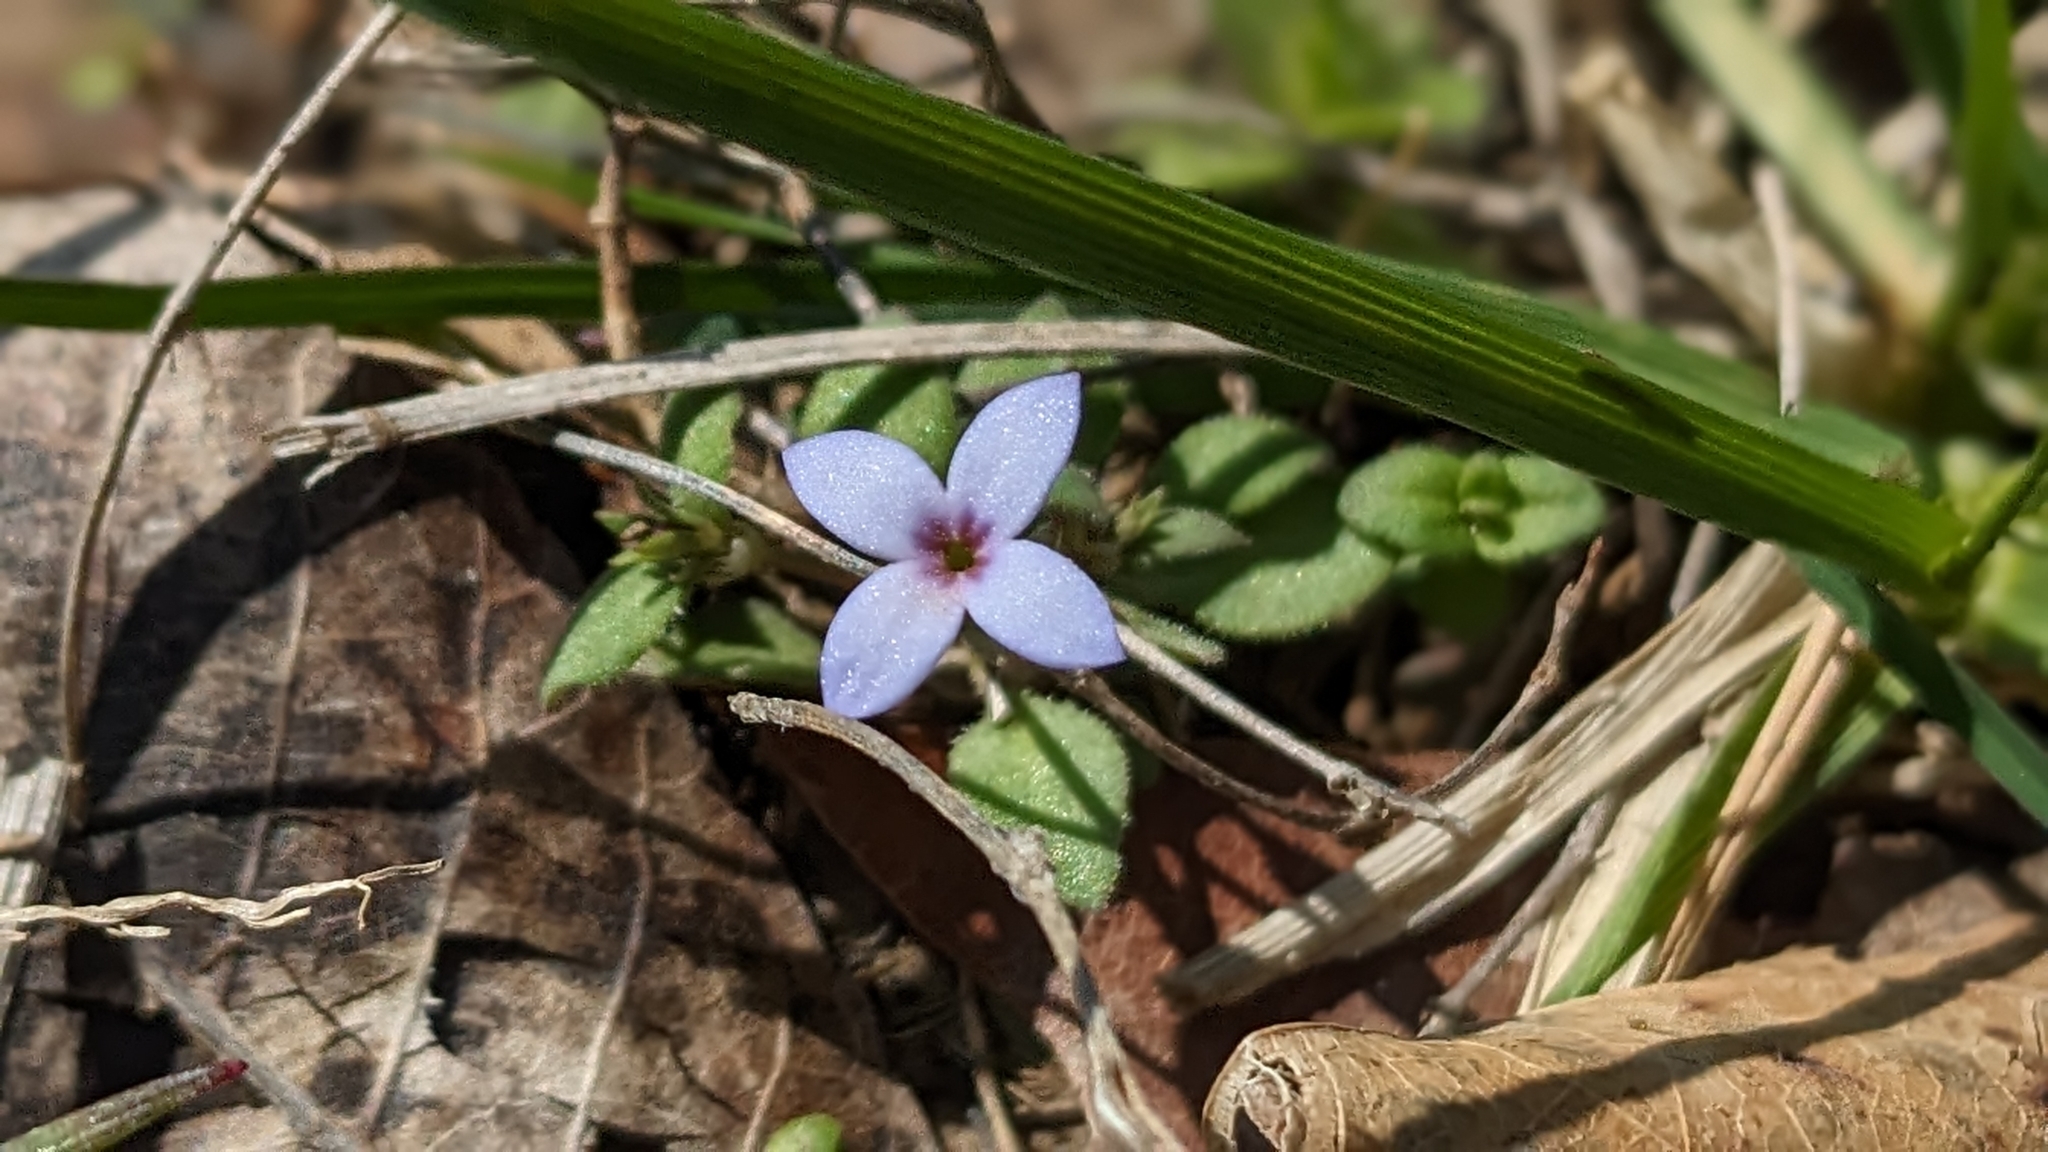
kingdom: Plantae
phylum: Tracheophyta
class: Magnoliopsida
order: Gentianales
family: Rubiaceae
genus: Houstonia
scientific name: Houstonia pusilla
